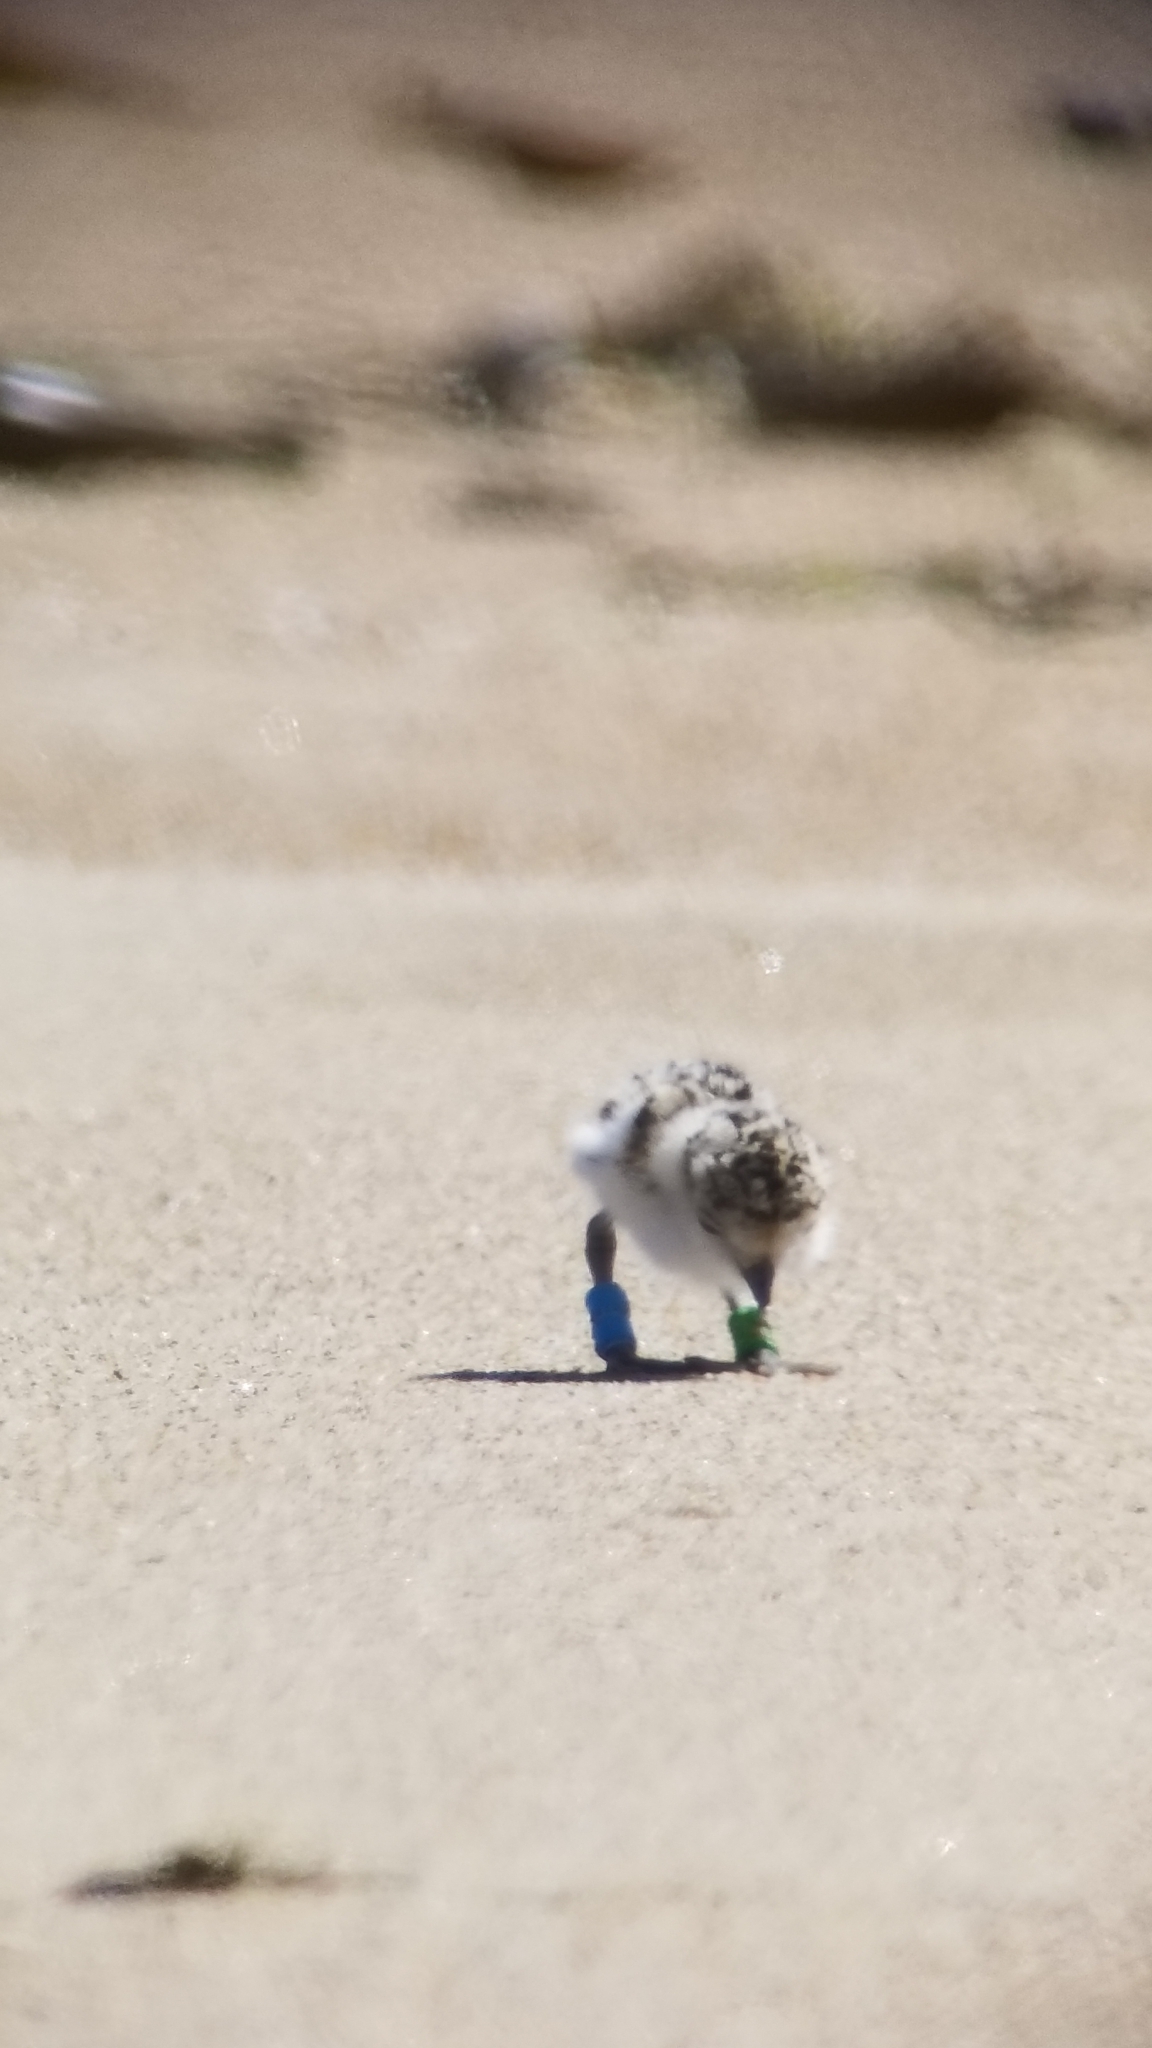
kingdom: Animalia
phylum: Chordata
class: Aves
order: Charadriiformes
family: Charadriidae
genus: Anarhynchus
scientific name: Anarhynchus
